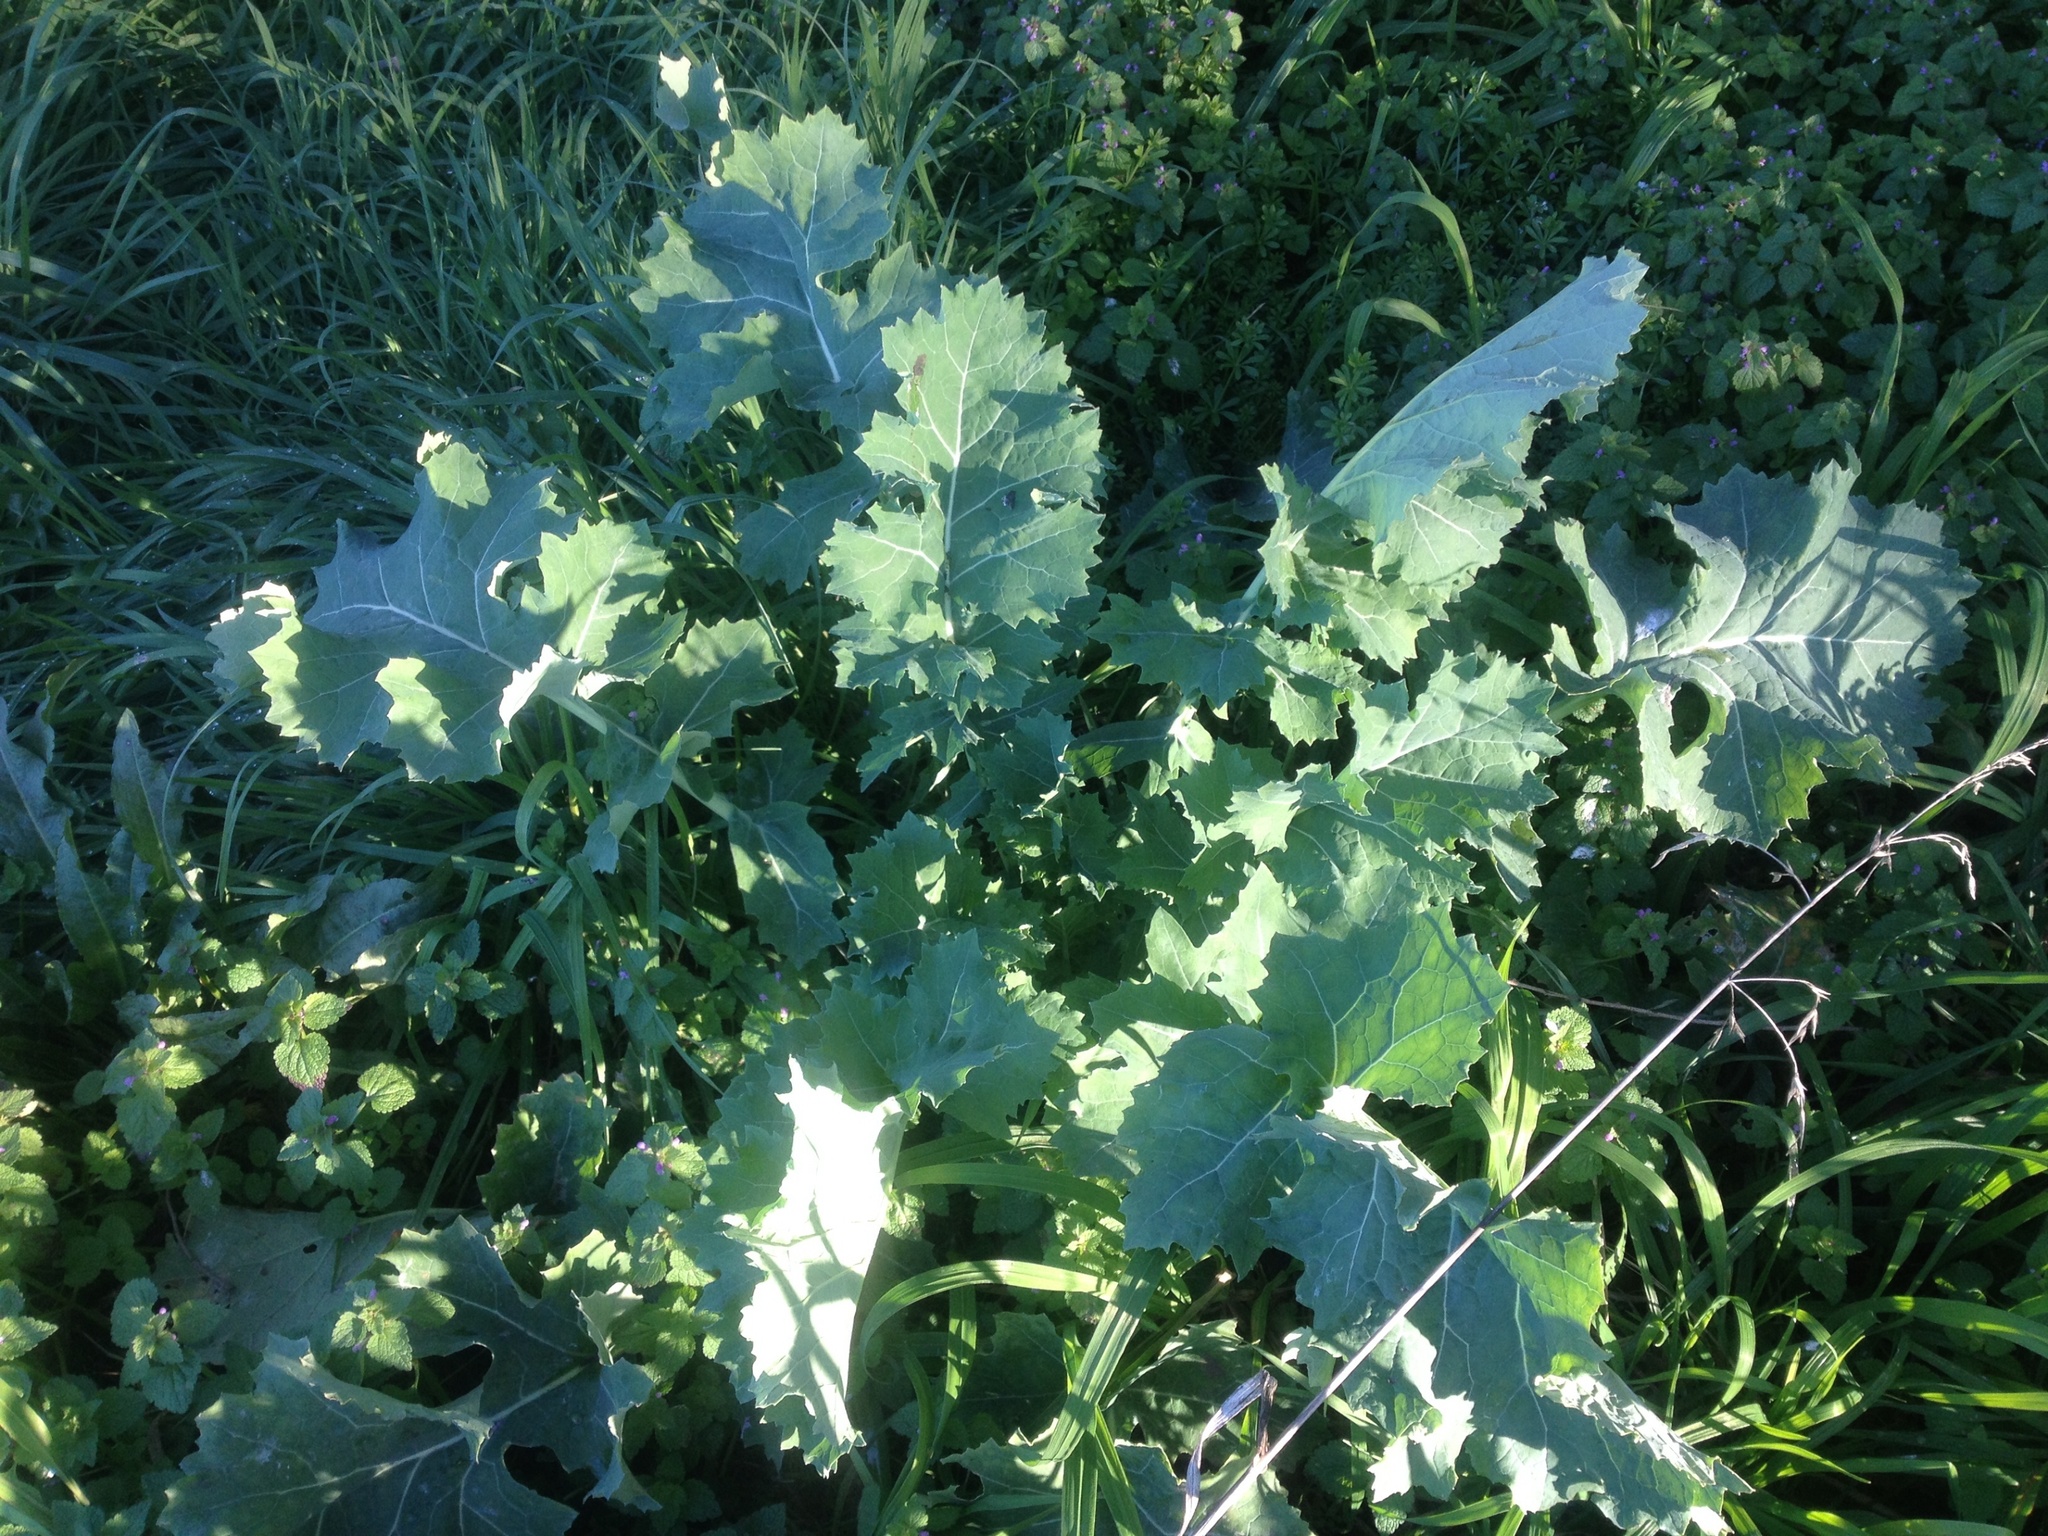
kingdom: Plantae
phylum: Tracheophyta
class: Magnoliopsida
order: Brassicales
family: Brassicaceae
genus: Brassica
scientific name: Brassica oleracea
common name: Cabbage
